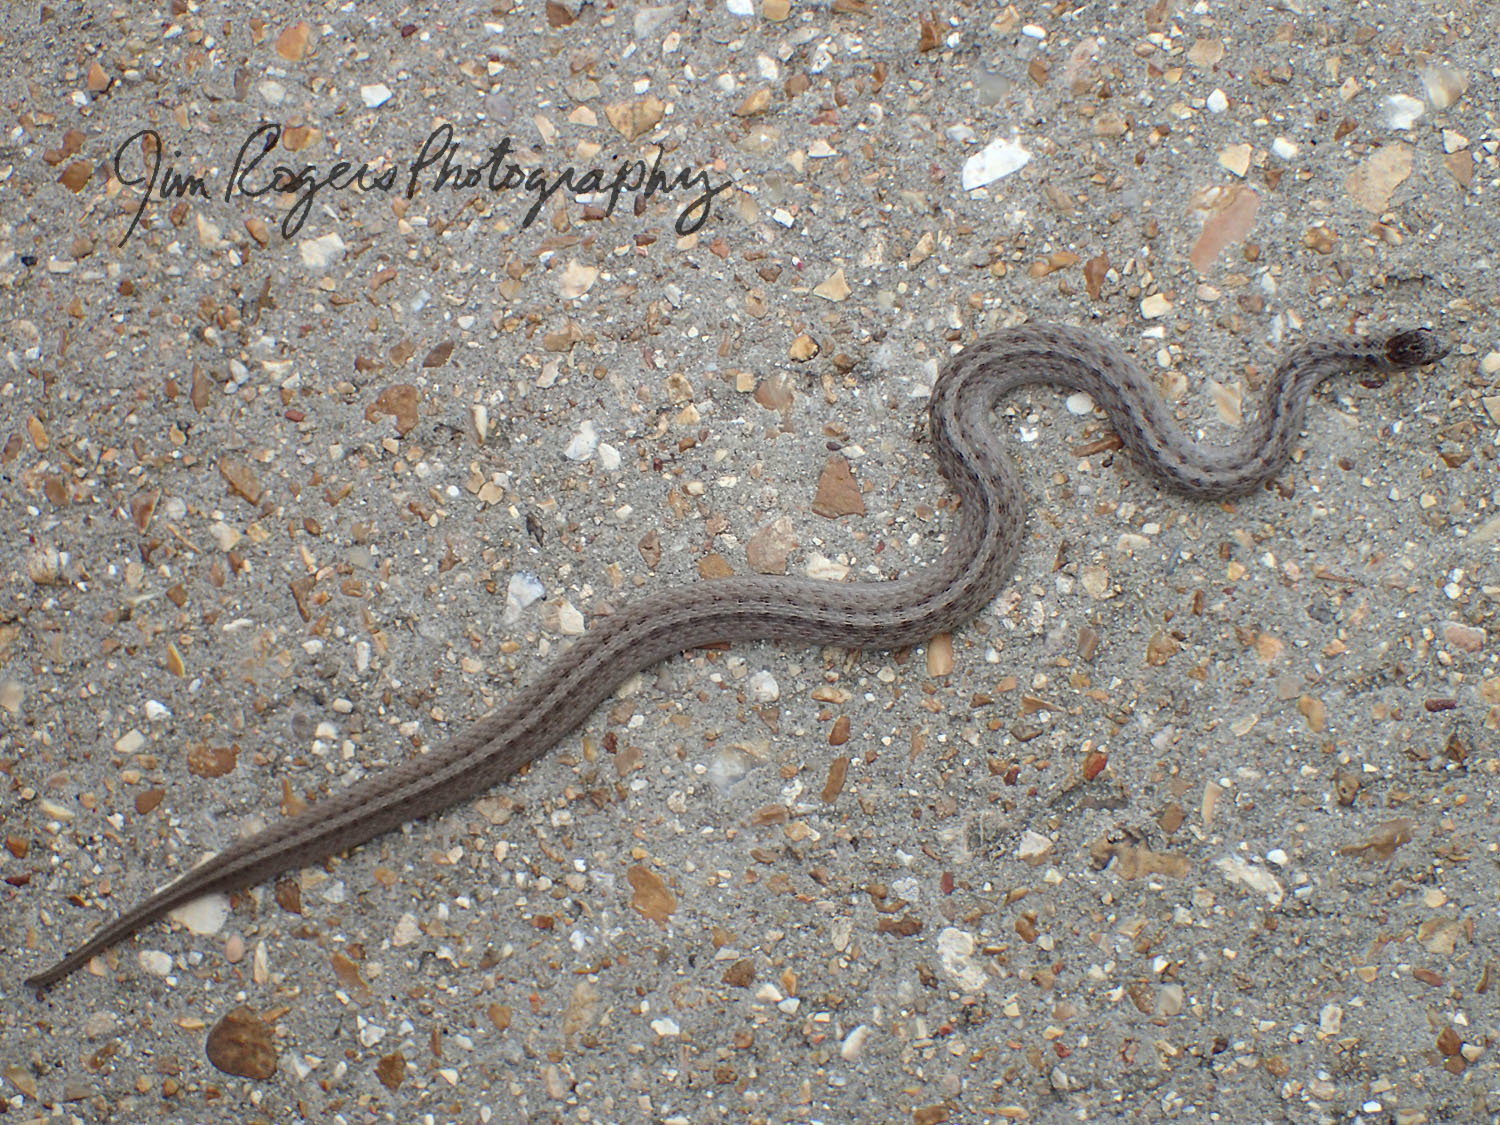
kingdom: Animalia
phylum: Chordata
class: Squamata
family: Colubridae
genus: Storeria
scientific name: Storeria dekayi
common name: (dekay’s) brown snake
